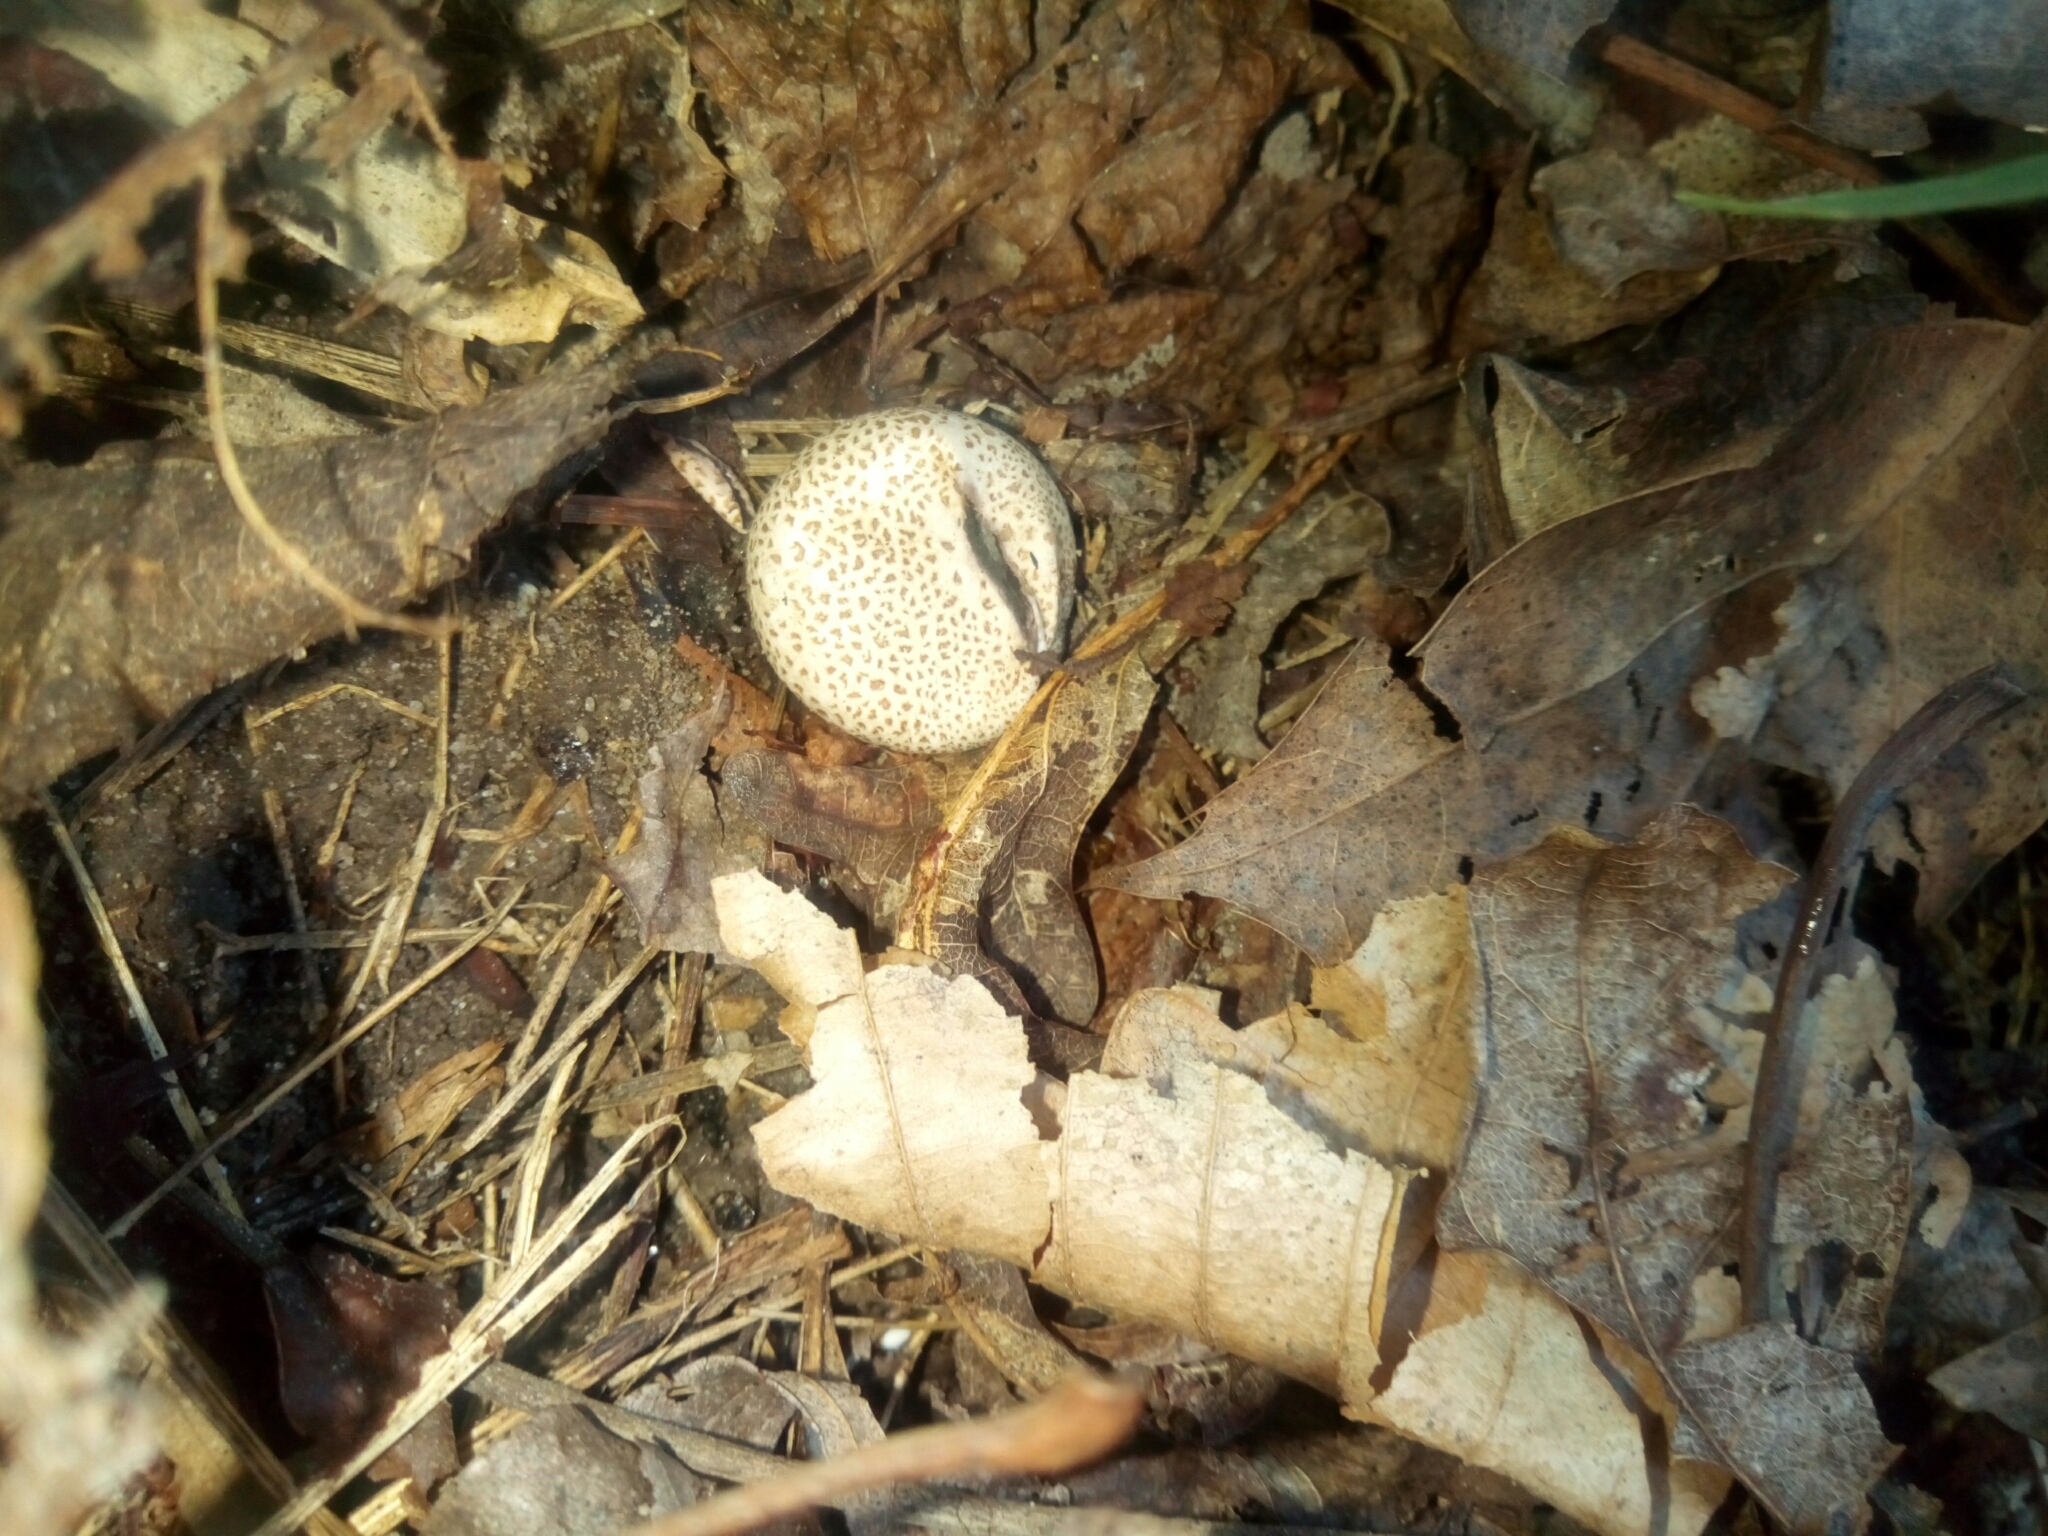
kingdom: Fungi
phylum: Basidiomycota
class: Agaricomycetes
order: Boletales
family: Sclerodermataceae
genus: Scleroderma
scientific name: Scleroderma citrinum
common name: Common earthball
